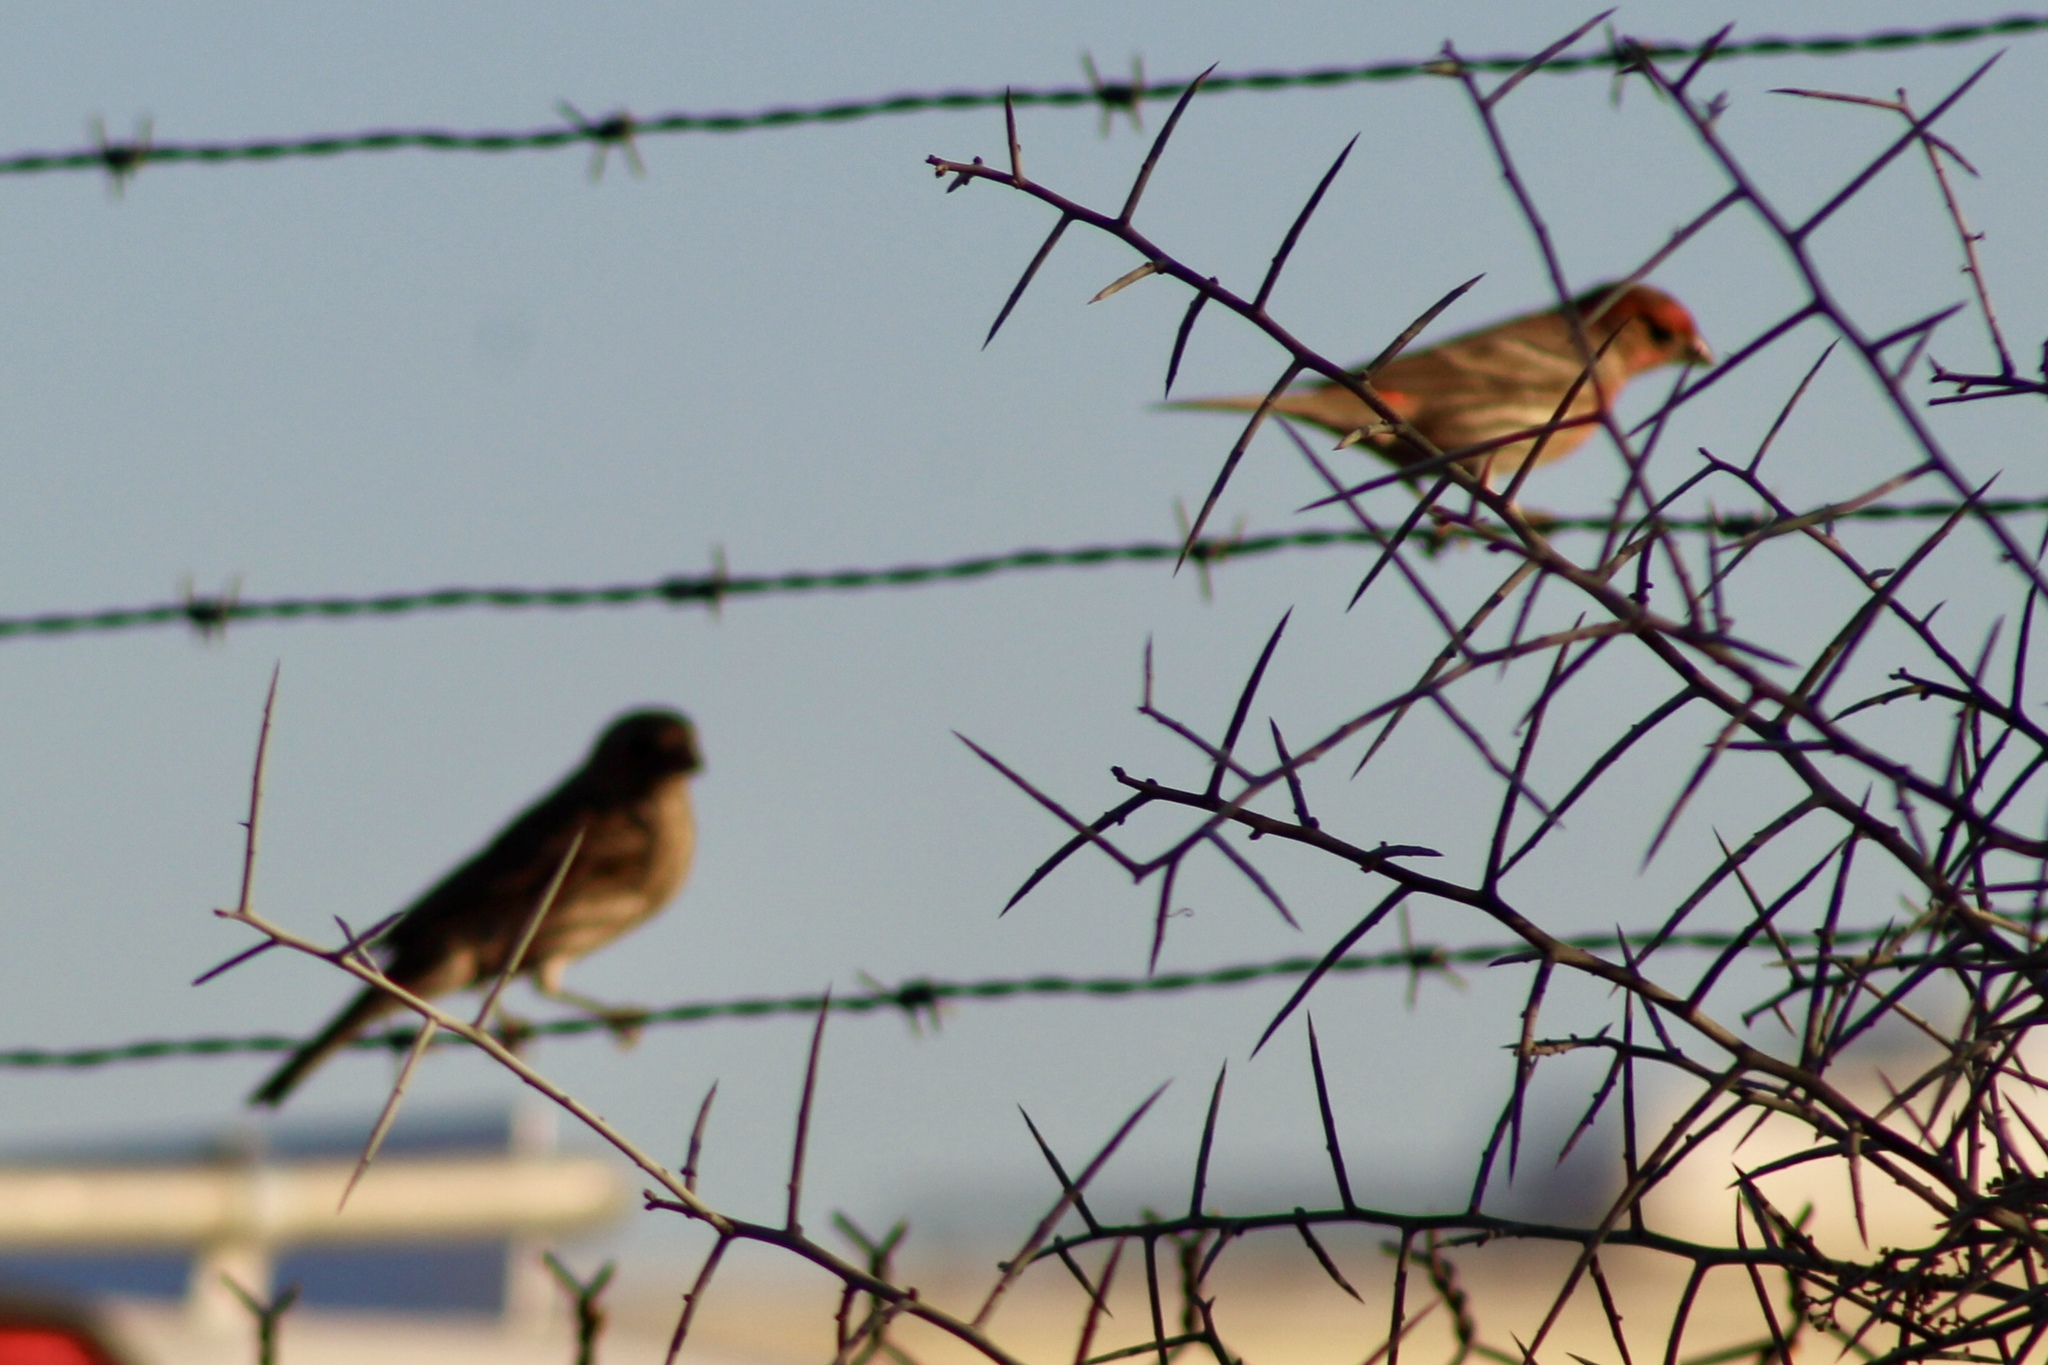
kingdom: Animalia
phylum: Chordata
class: Aves
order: Passeriformes
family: Fringillidae
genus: Haemorhous
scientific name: Haemorhous mexicanus
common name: House finch
